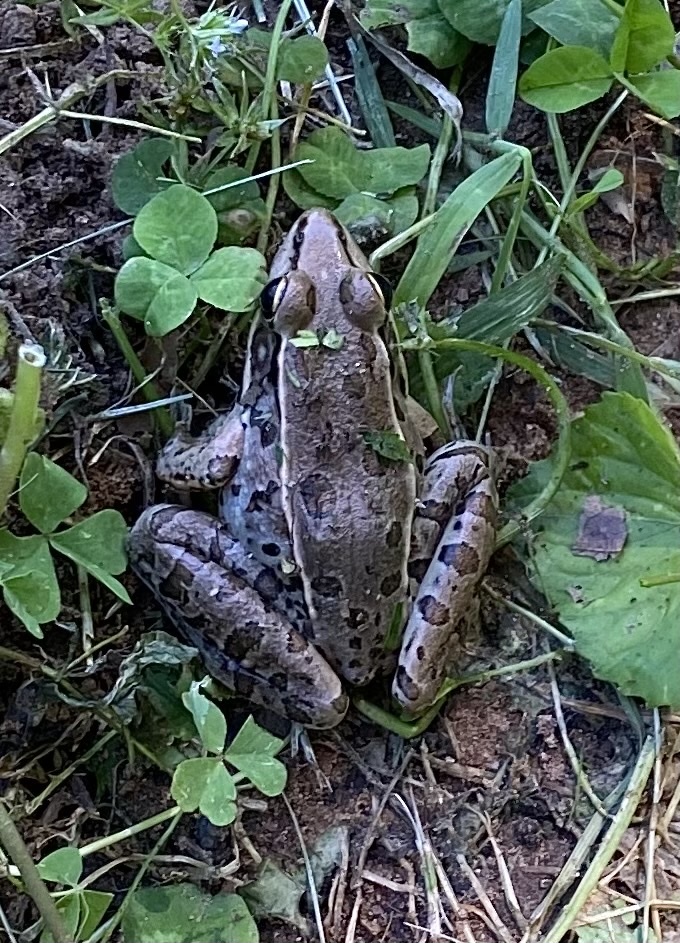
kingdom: Animalia
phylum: Chordata
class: Amphibia
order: Anura
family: Ranidae
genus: Lithobates
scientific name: Lithobates sphenocephalus
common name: Southern leopard frog
